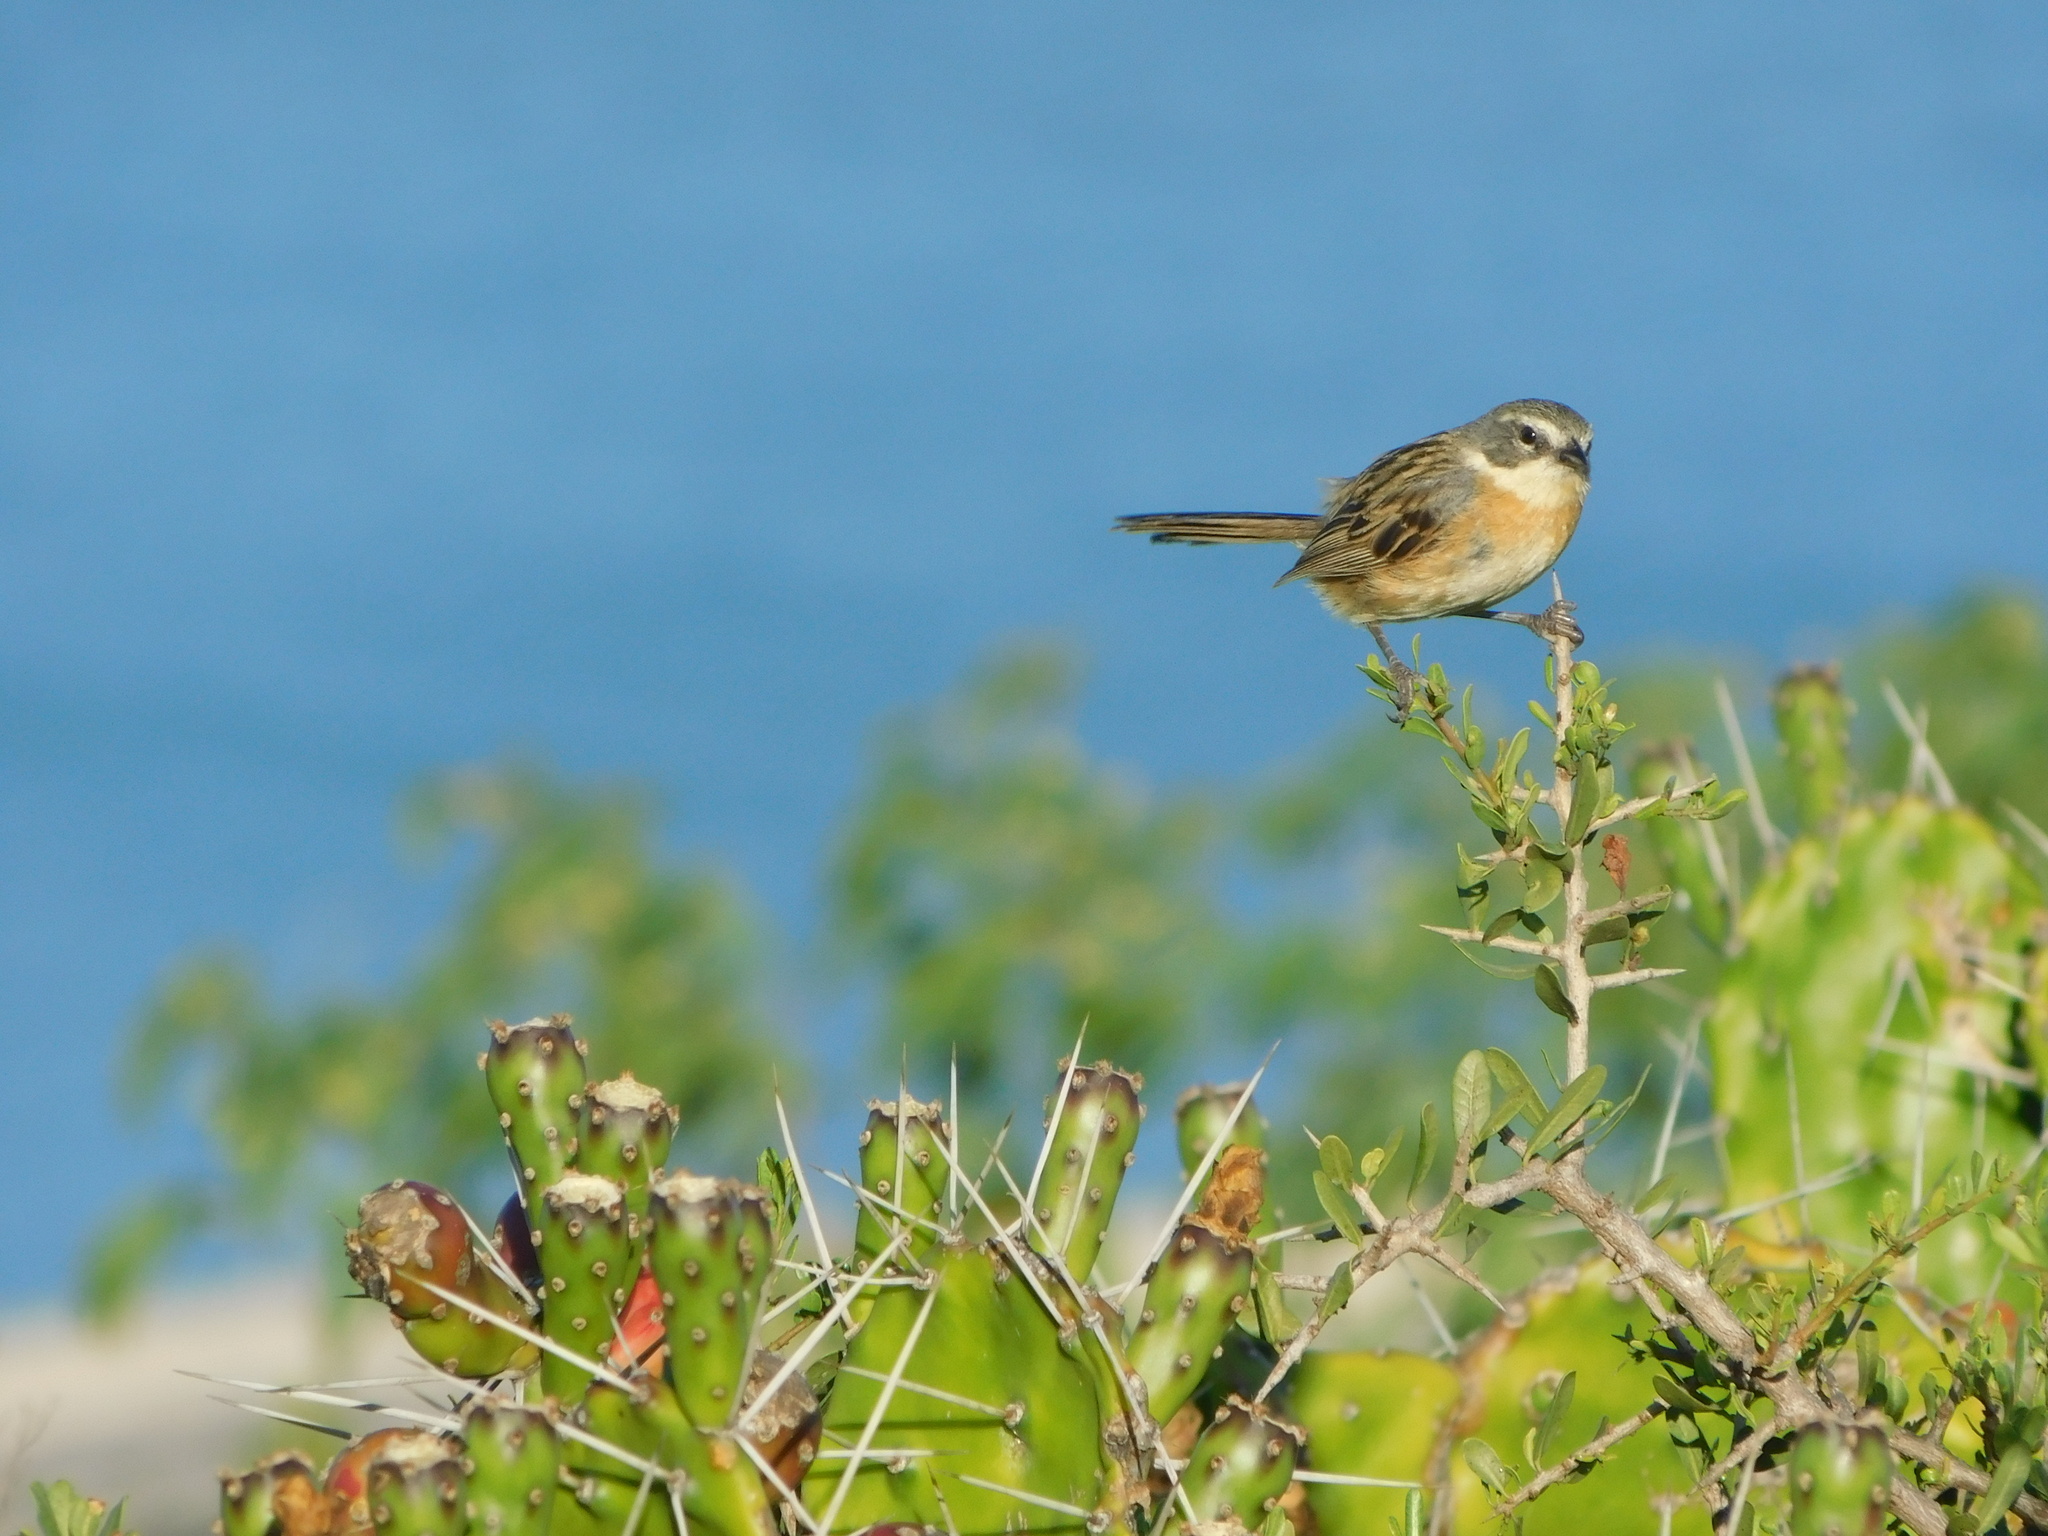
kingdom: Animalia
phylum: Chordata
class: Aves
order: Passeriformes
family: Thraupidae
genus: Donacospiza
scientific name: Donacospiza albifrons
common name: Long-tailed reed finch
